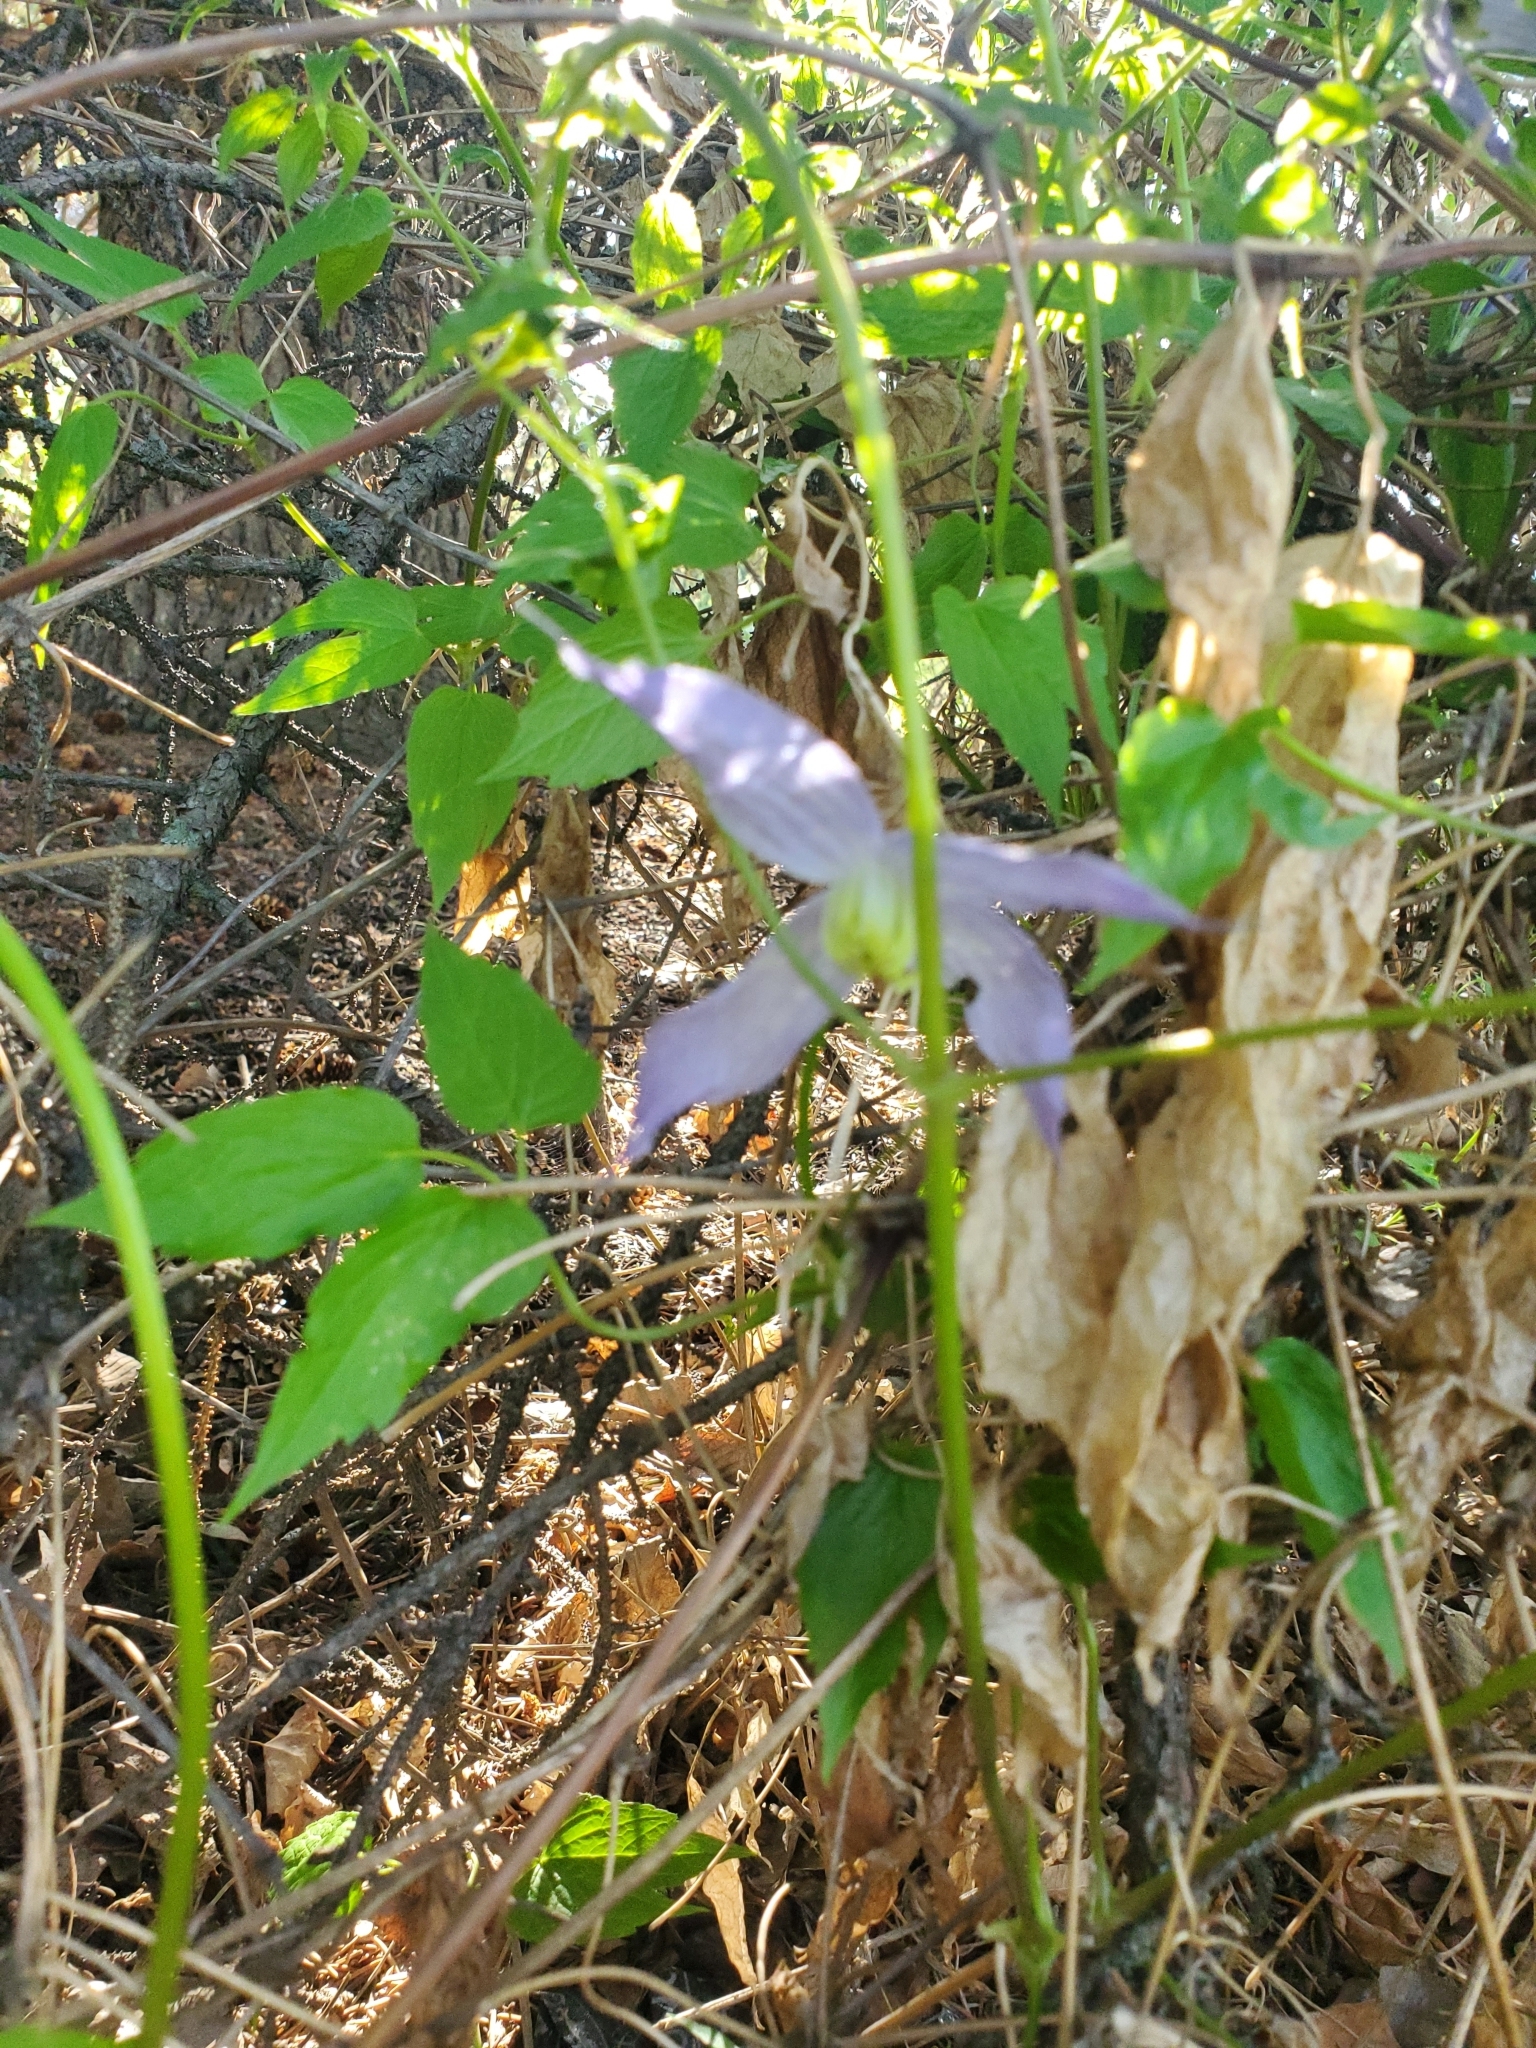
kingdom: Plantae
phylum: Tracheophyta
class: Magnoliopsida
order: Ranunculales
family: Ranunculaceae
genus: Clematis
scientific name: Clematis occidentalis
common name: Purple clematis
